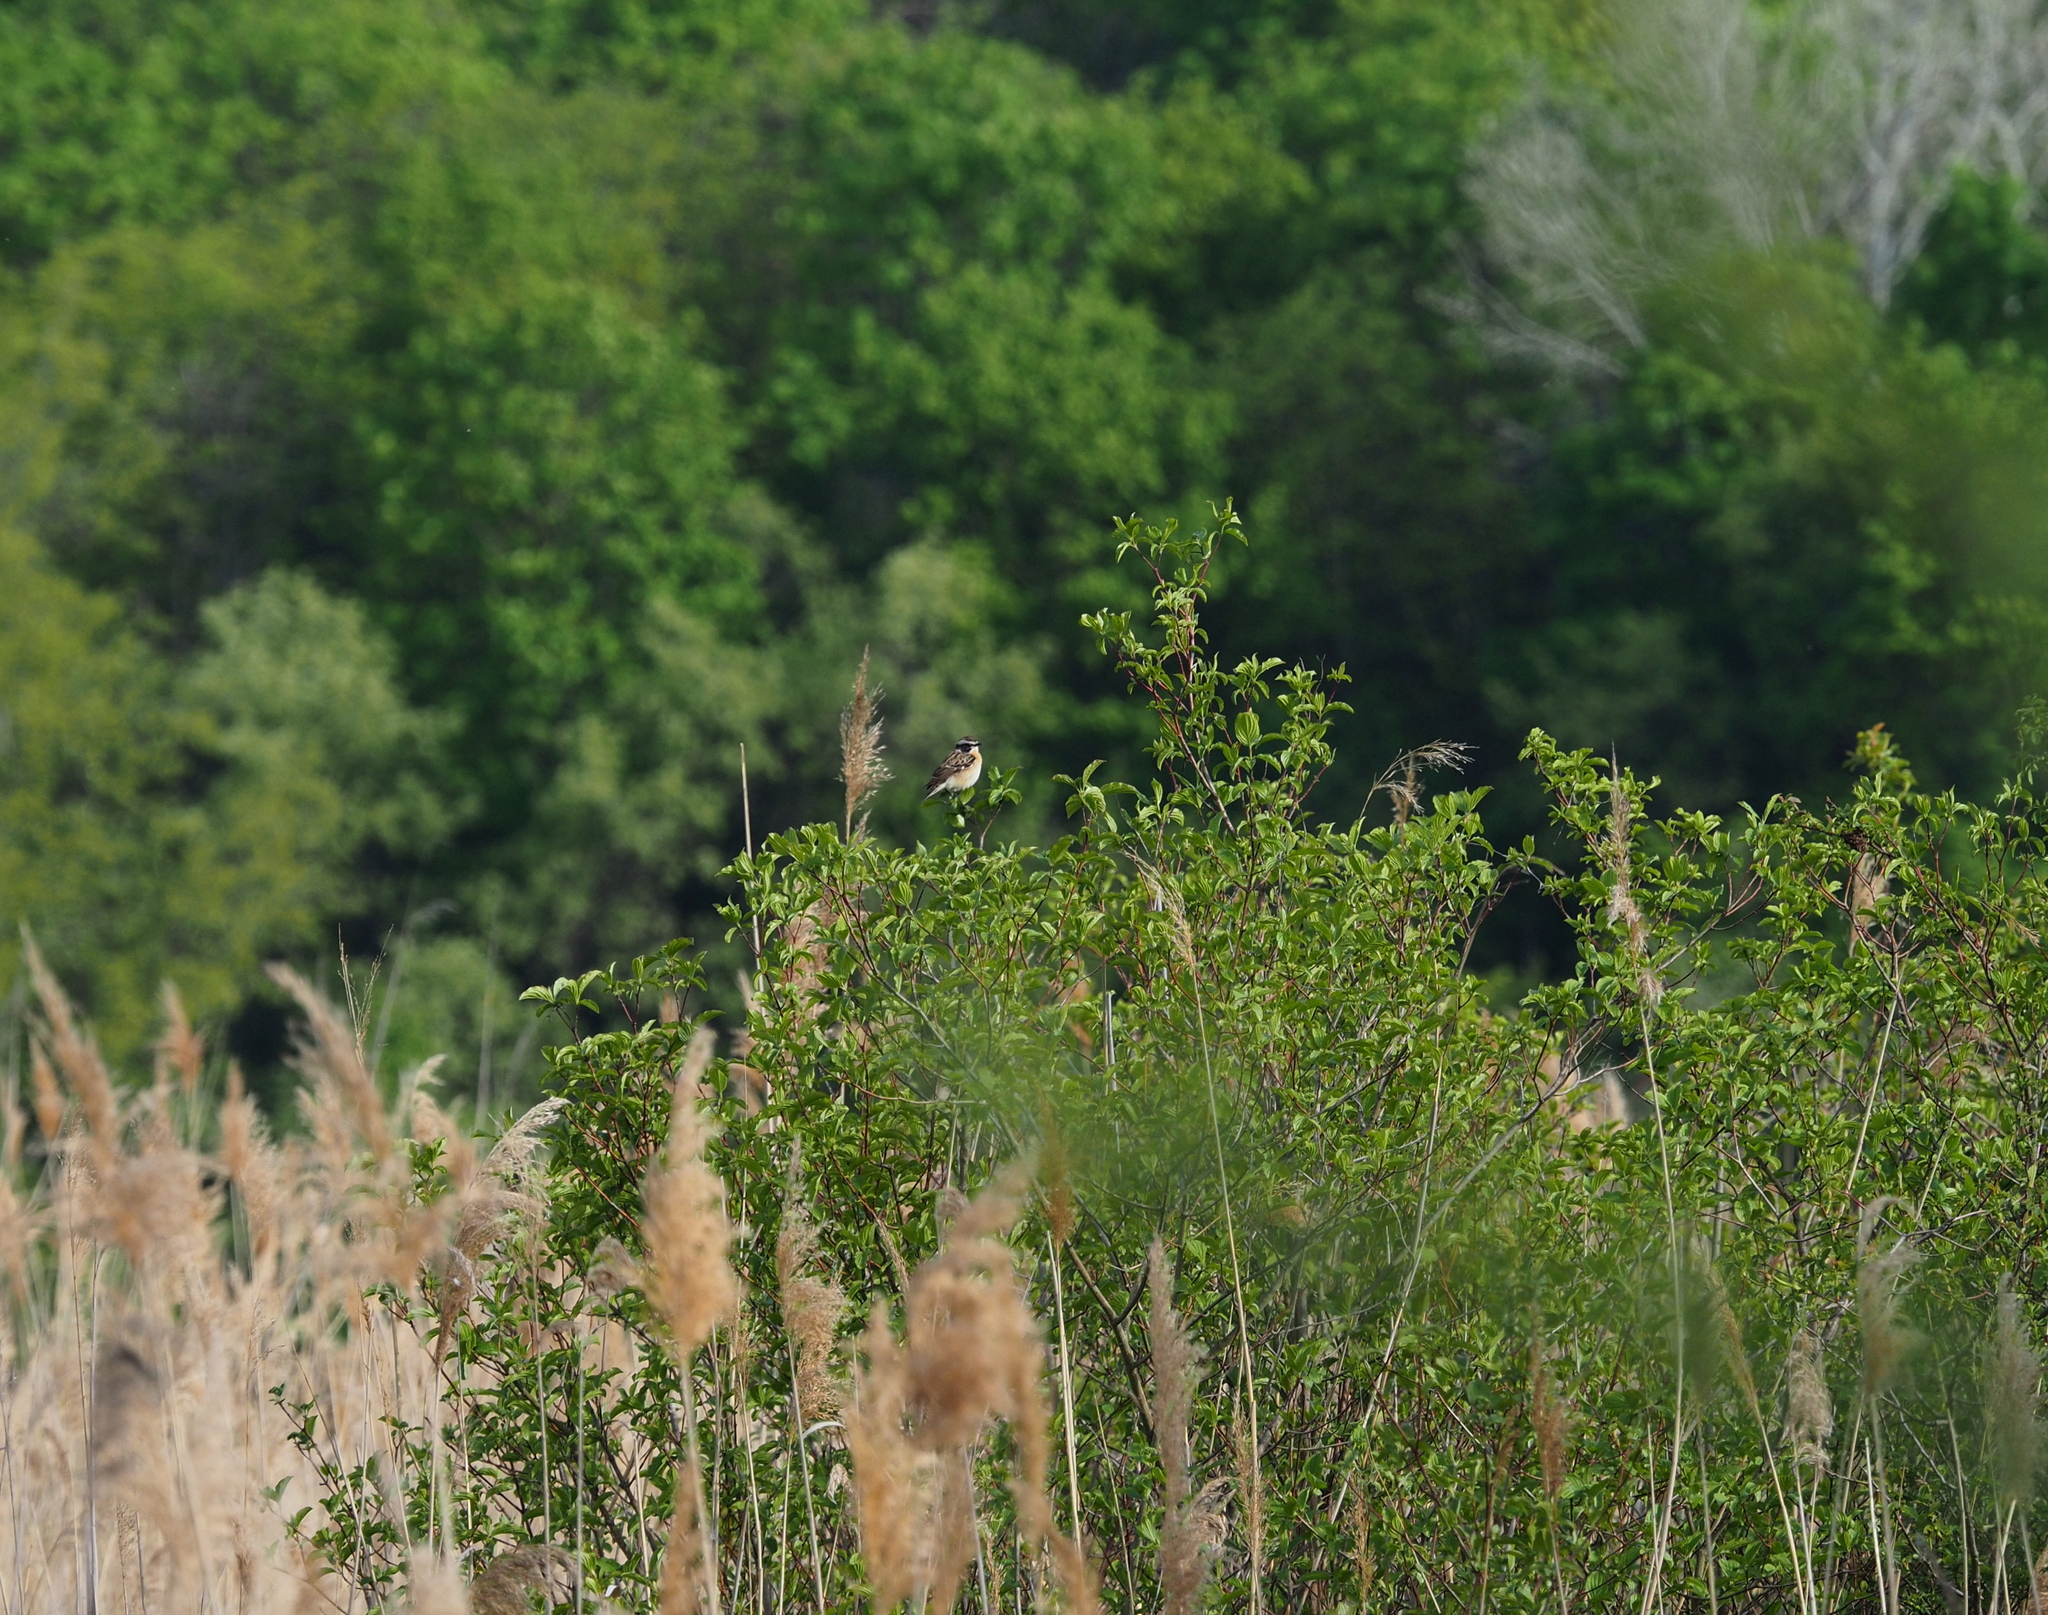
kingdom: Animalia
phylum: Chordata
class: Aves
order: Passeriformes
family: Muscicapidae
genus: Saxicola
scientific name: Saxicola rubetra
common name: Whinchat
